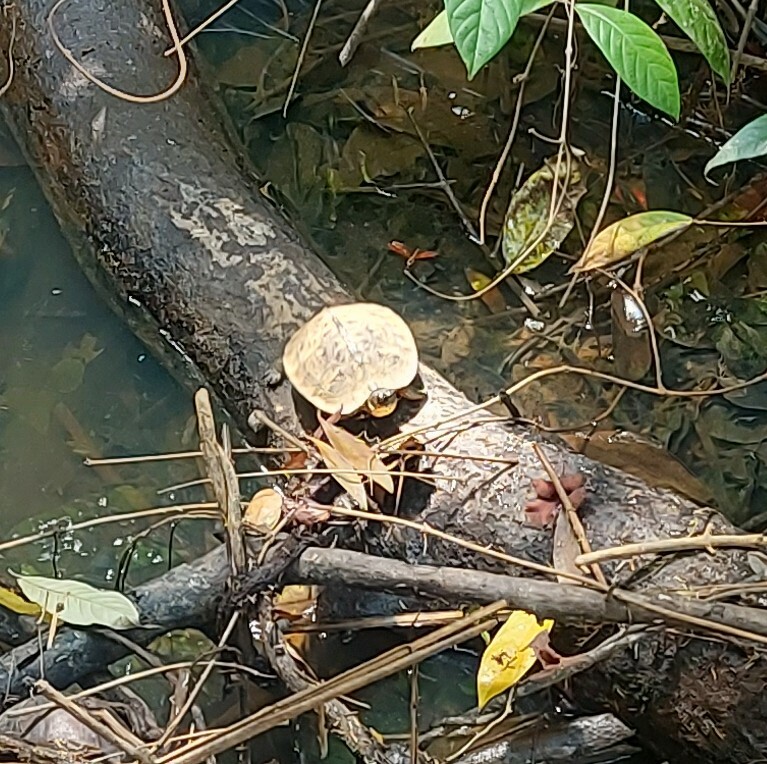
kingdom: Animalia
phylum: Chordata
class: Testudines
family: Geoemydidae
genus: Rhinoclemmys
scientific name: Rhinoclemmys funerea
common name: Black wood turtle
